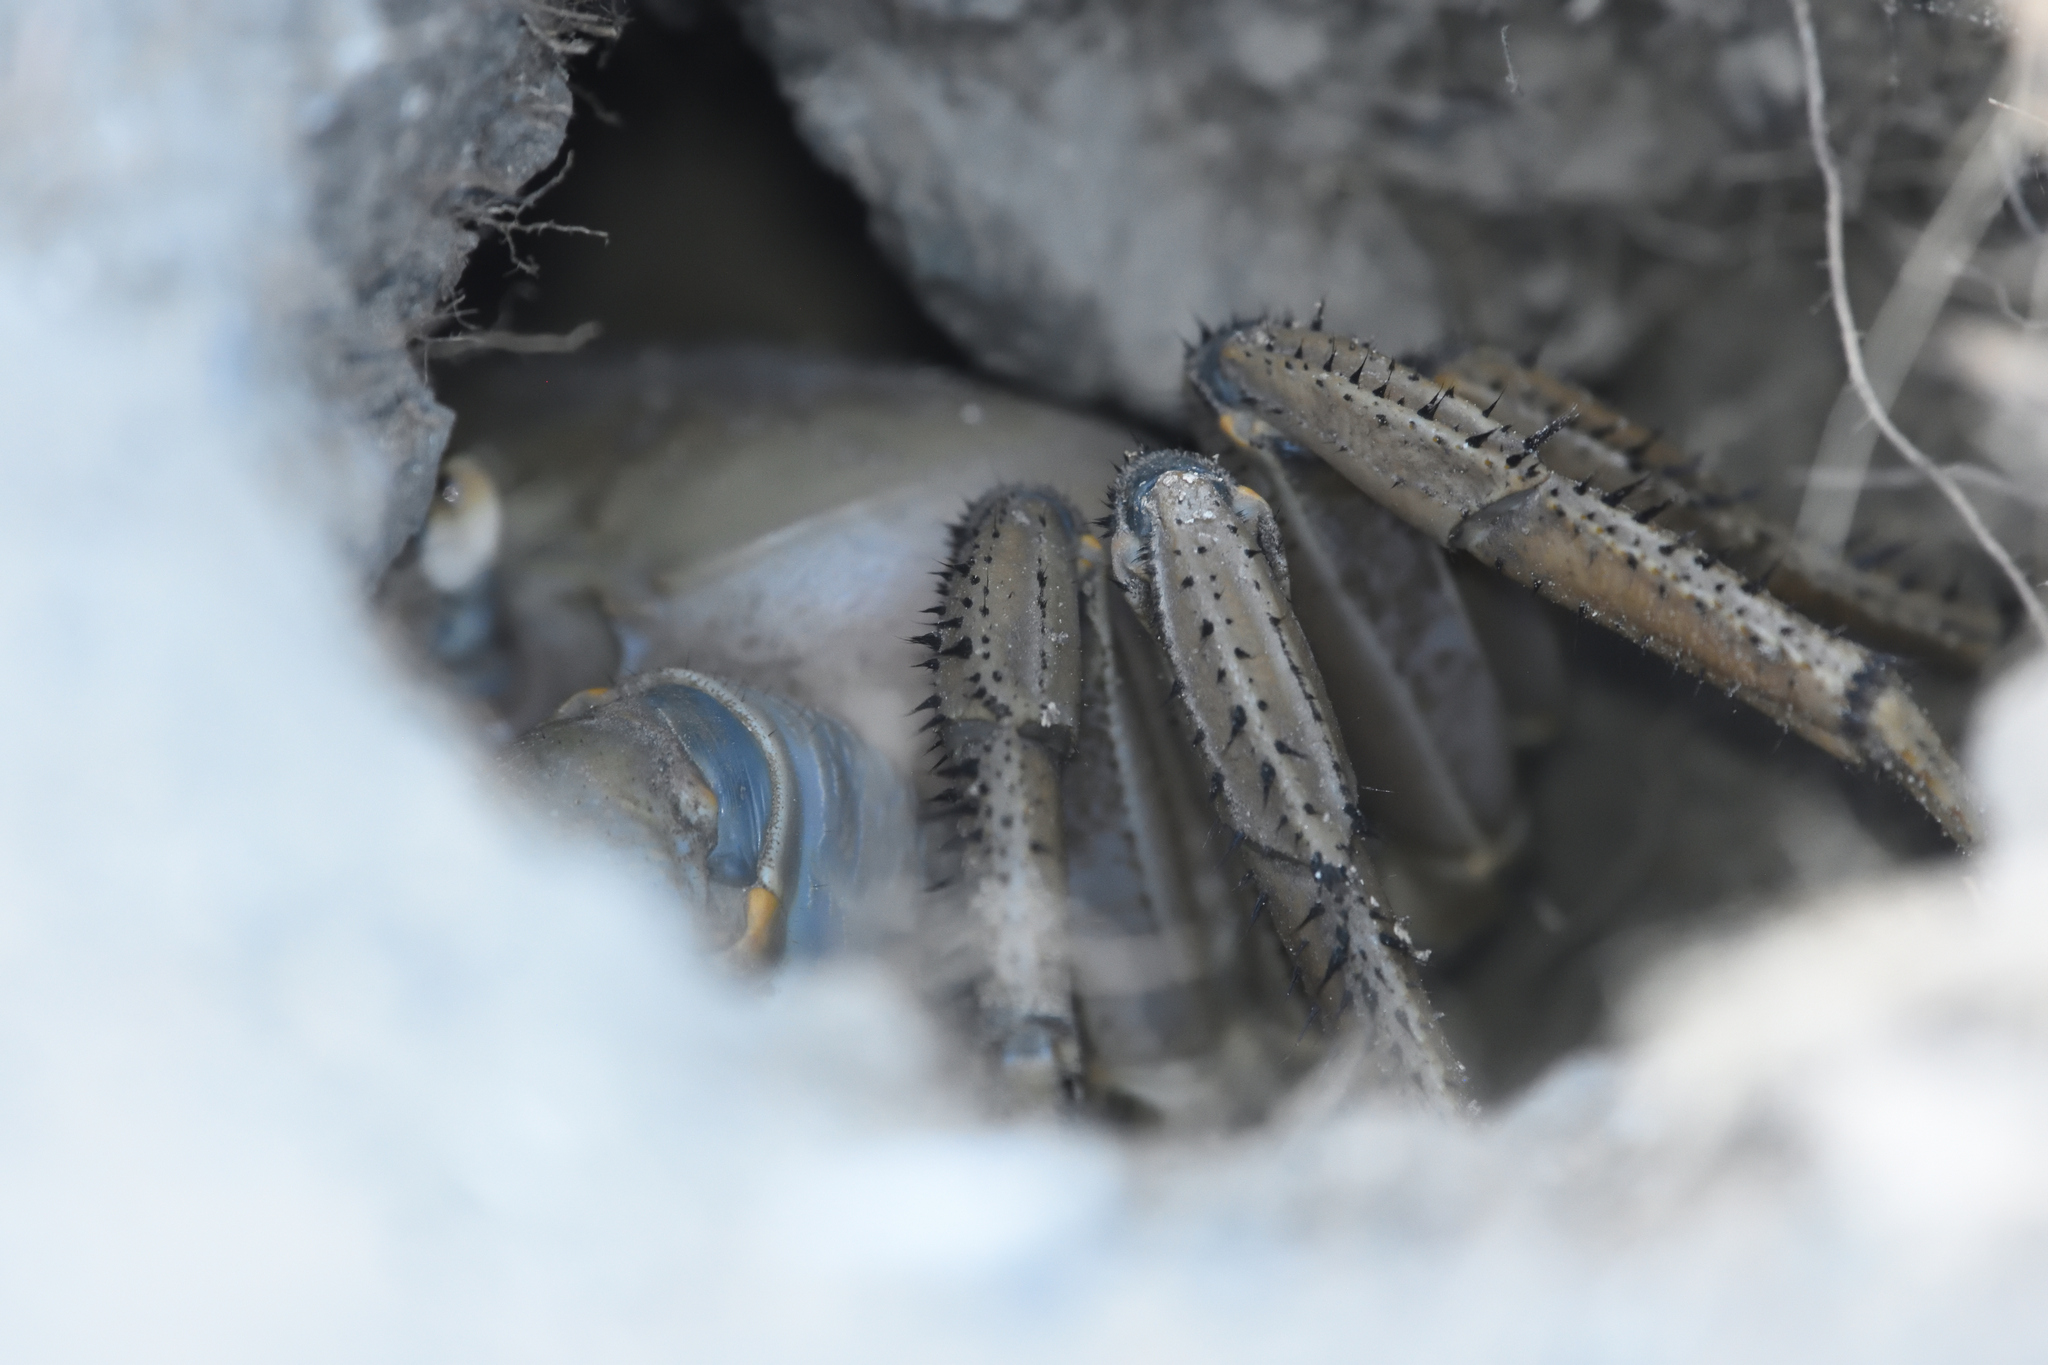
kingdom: Animalia
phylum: Arthropoda
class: Malacostraca
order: Decapoda
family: Gecarcinidae
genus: Cardisoma
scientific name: Cardisoma guanhumi
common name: Great land crab
